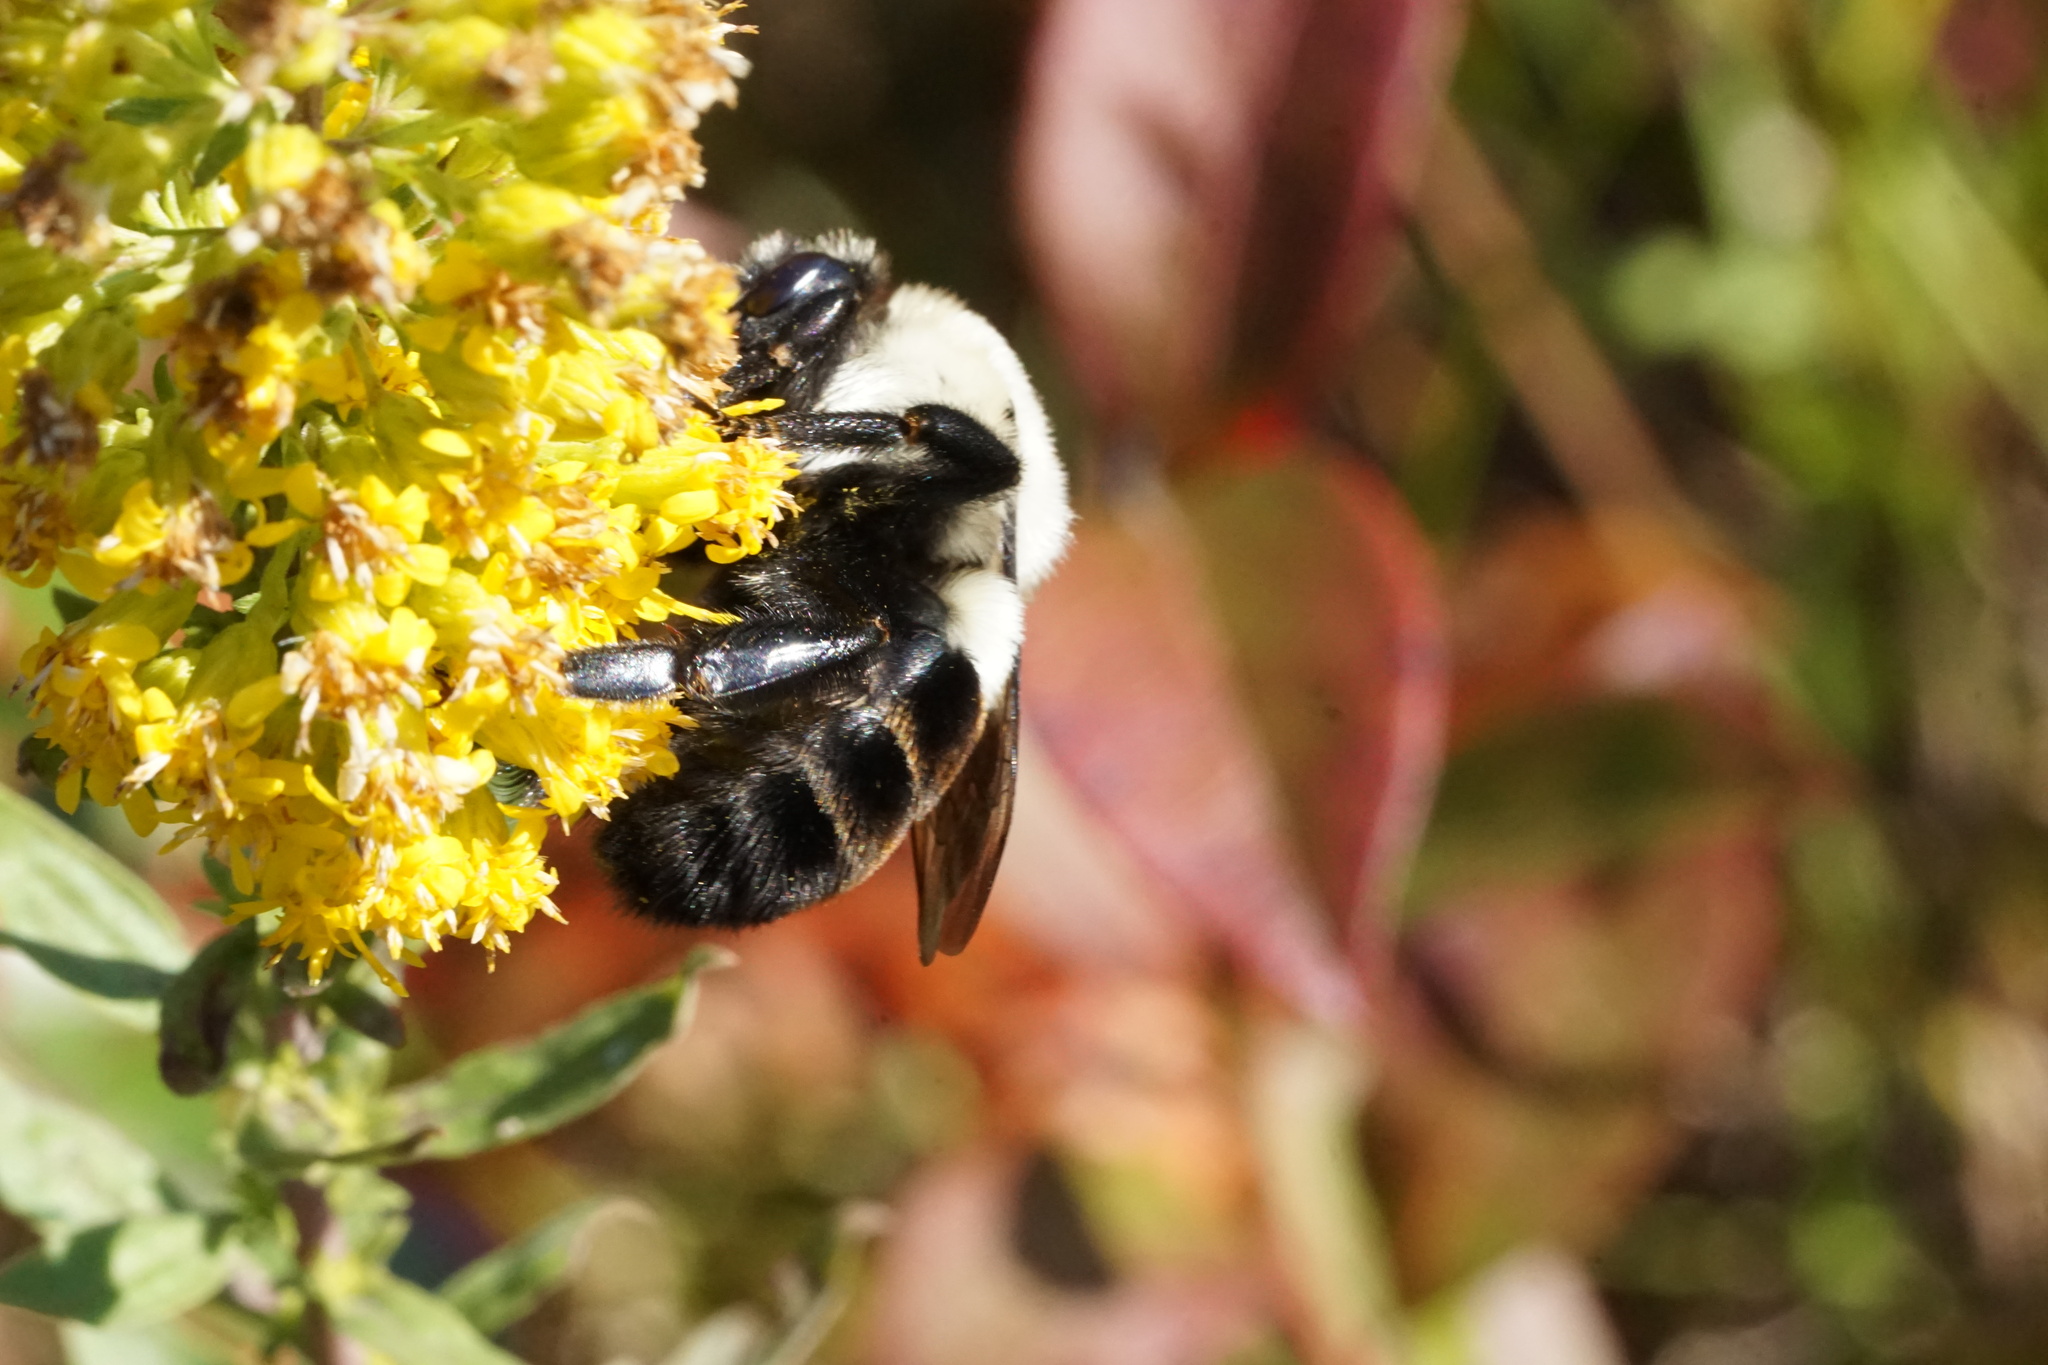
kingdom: Animalia
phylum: Arthropoda
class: Insecta
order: Hymenoptera
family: Apidae
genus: Bombus
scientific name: Bombus impatiens
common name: Common eastern bumble bee
